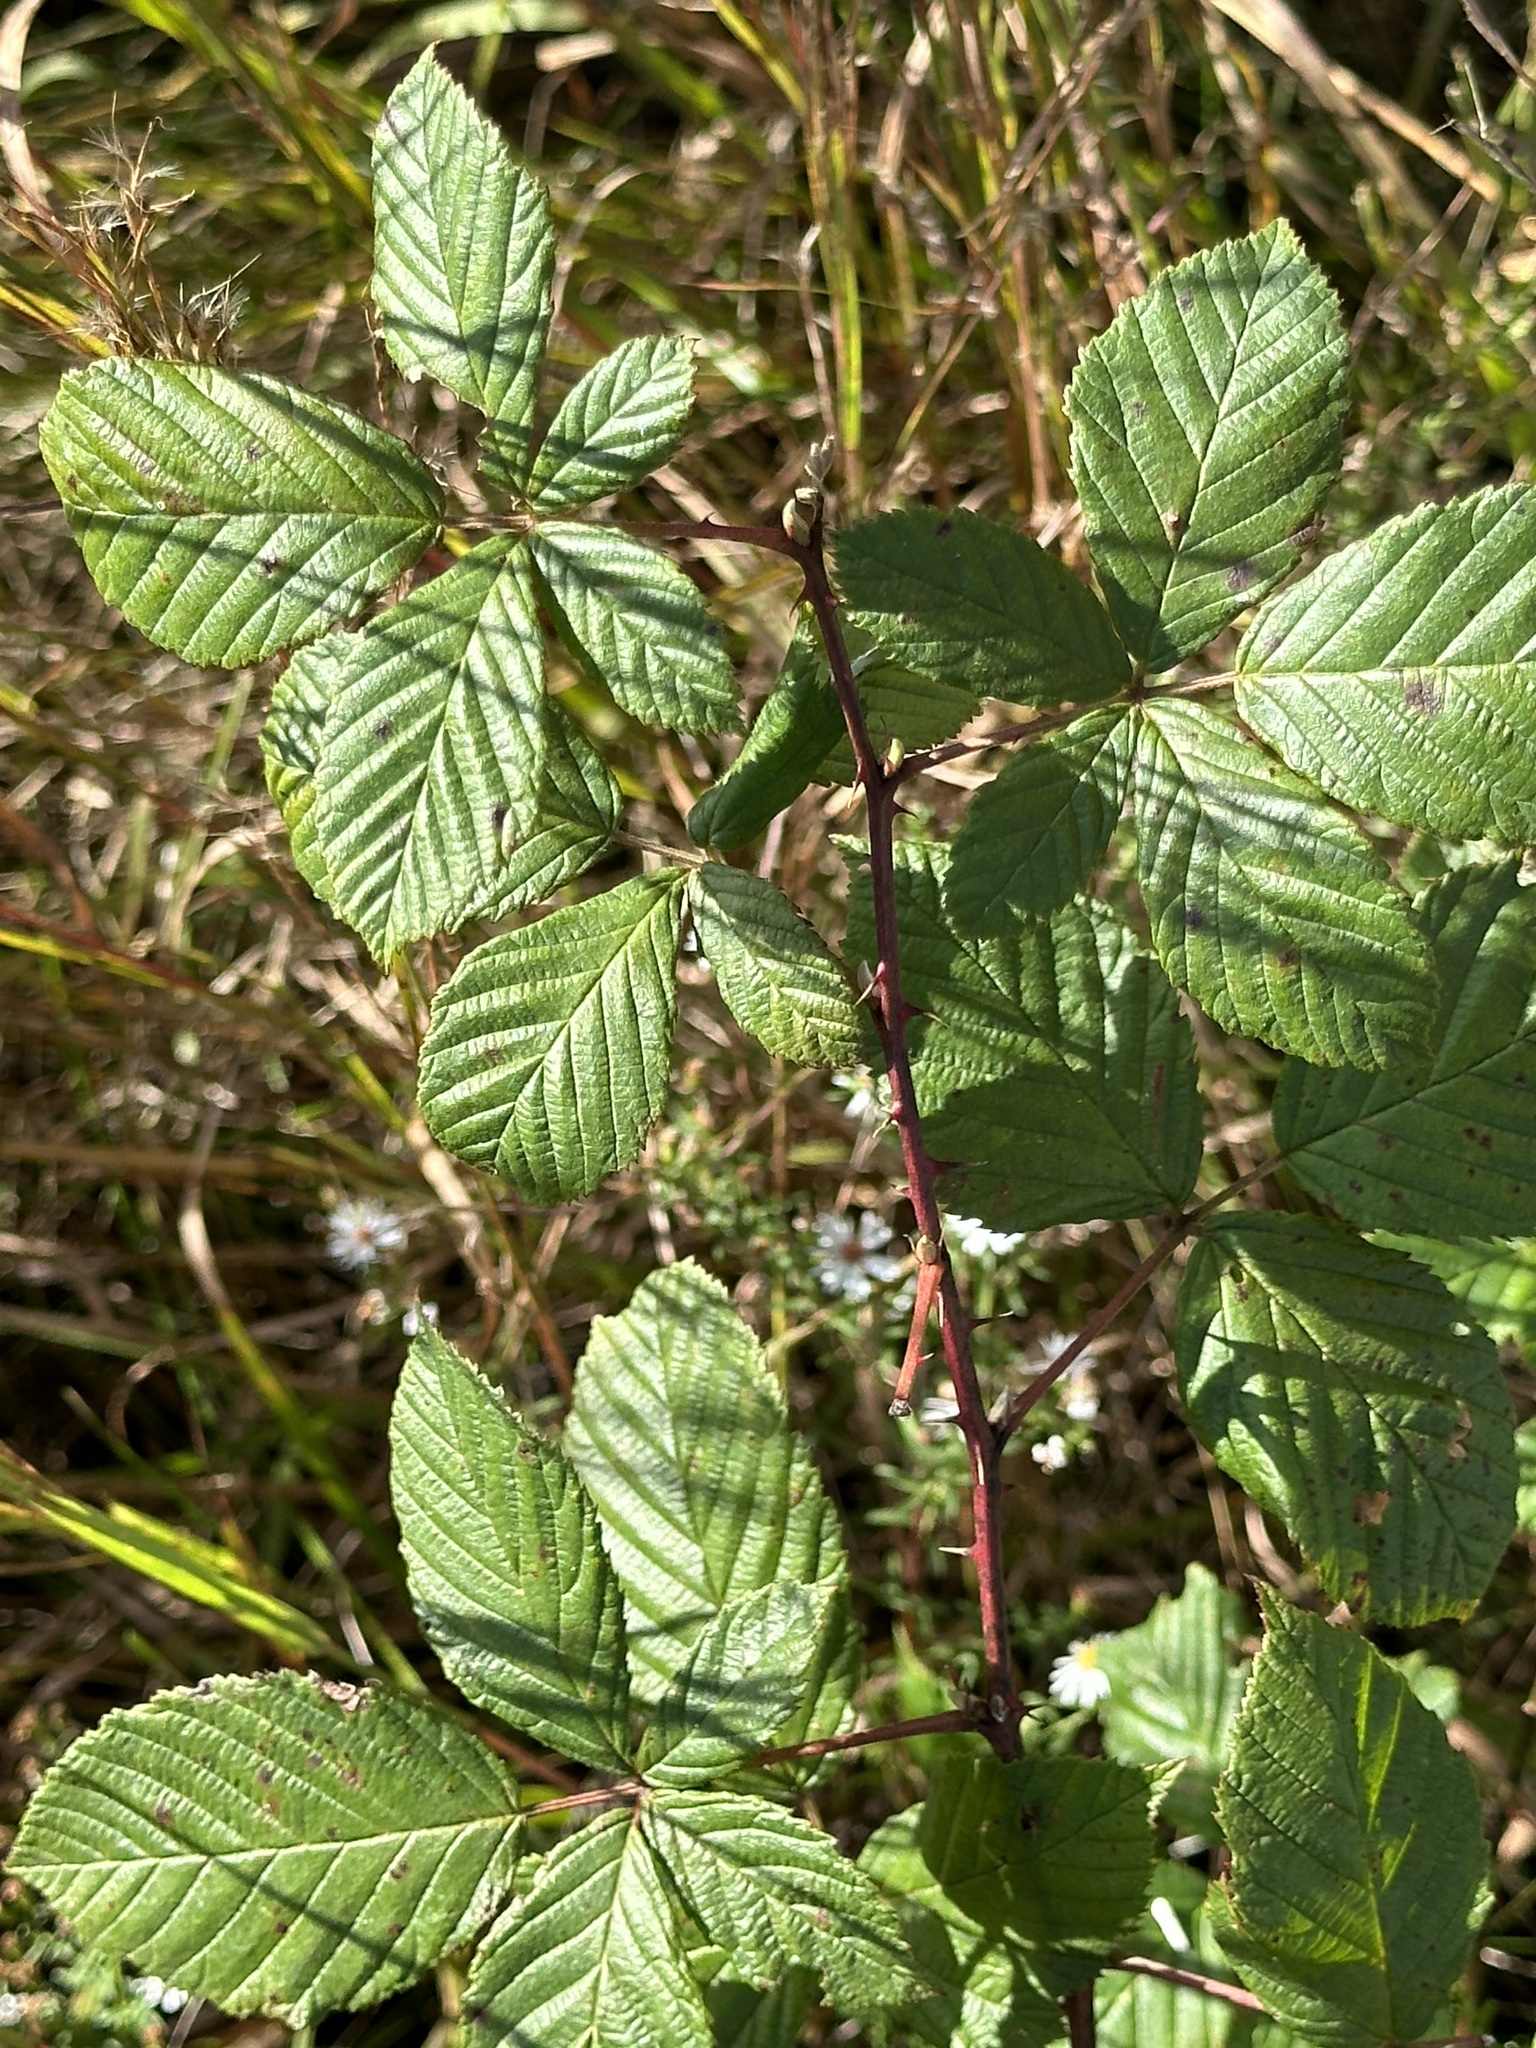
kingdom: Plantae
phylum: Tracheophyta
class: Magnoliopsida
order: Rosales
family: Rosaceae
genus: Rubus
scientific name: Rubus allegheniensis
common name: Allegheny blackberry
